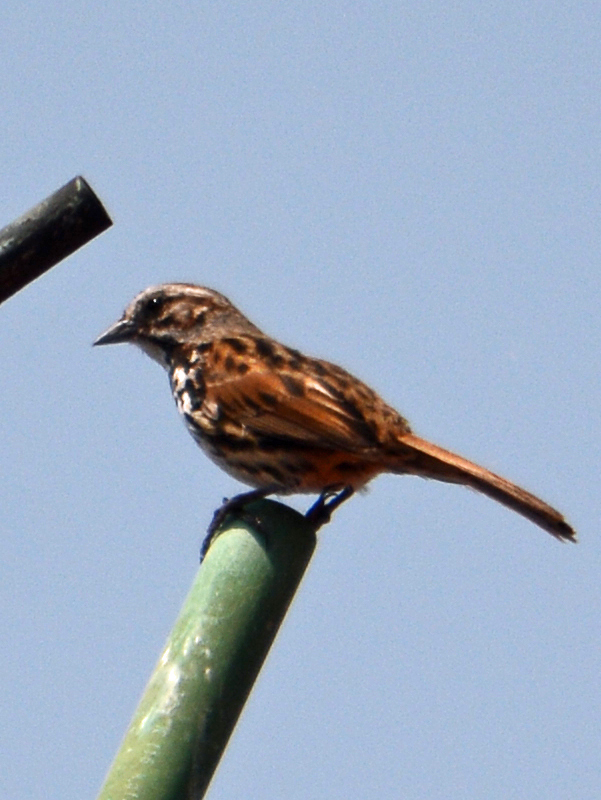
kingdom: Animalia
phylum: Chordata
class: Aves
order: Passeriformes
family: Passerellidae
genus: Melospiza
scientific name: Melospiza melodia
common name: Song sparrow
